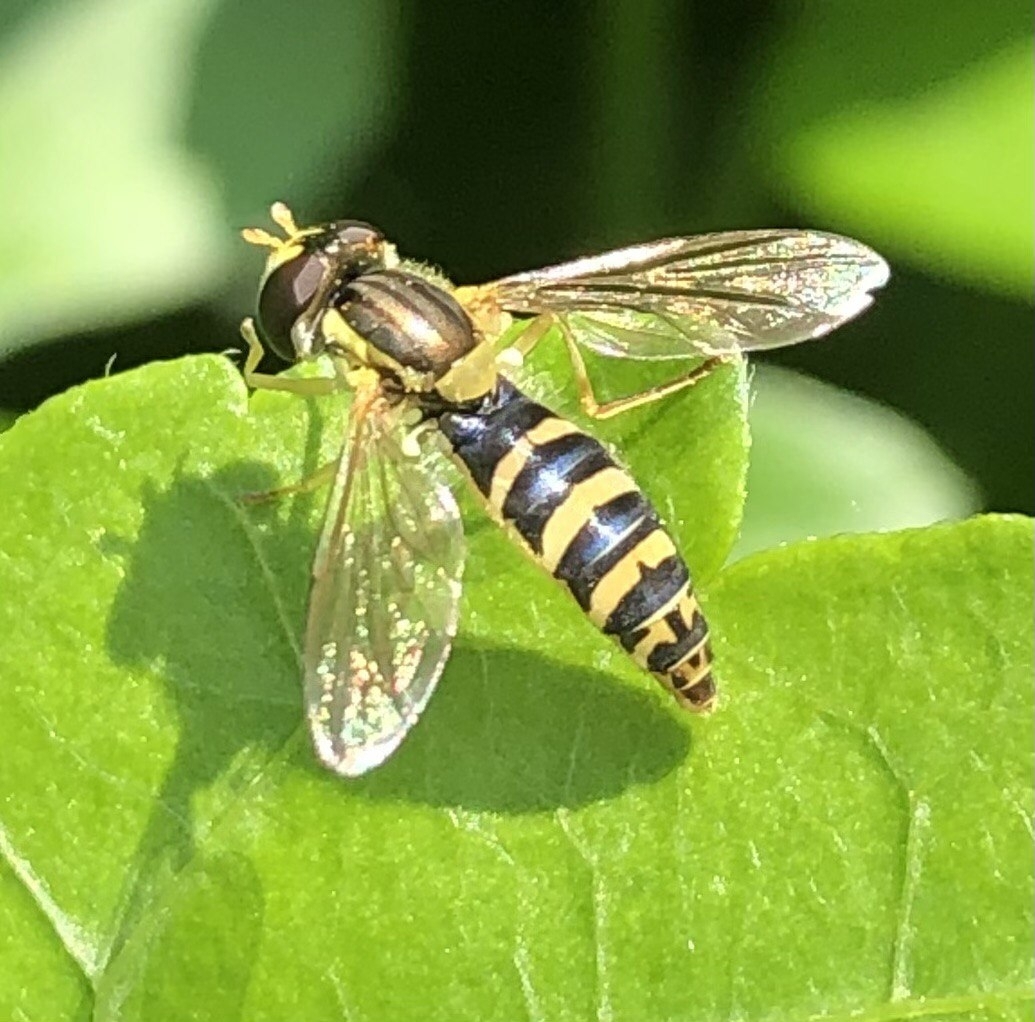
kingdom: Animalia
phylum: Arthropoda
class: Insecta
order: Diptera
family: Syrphidae
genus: Sphaerophoria
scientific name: Sphaerophoria
